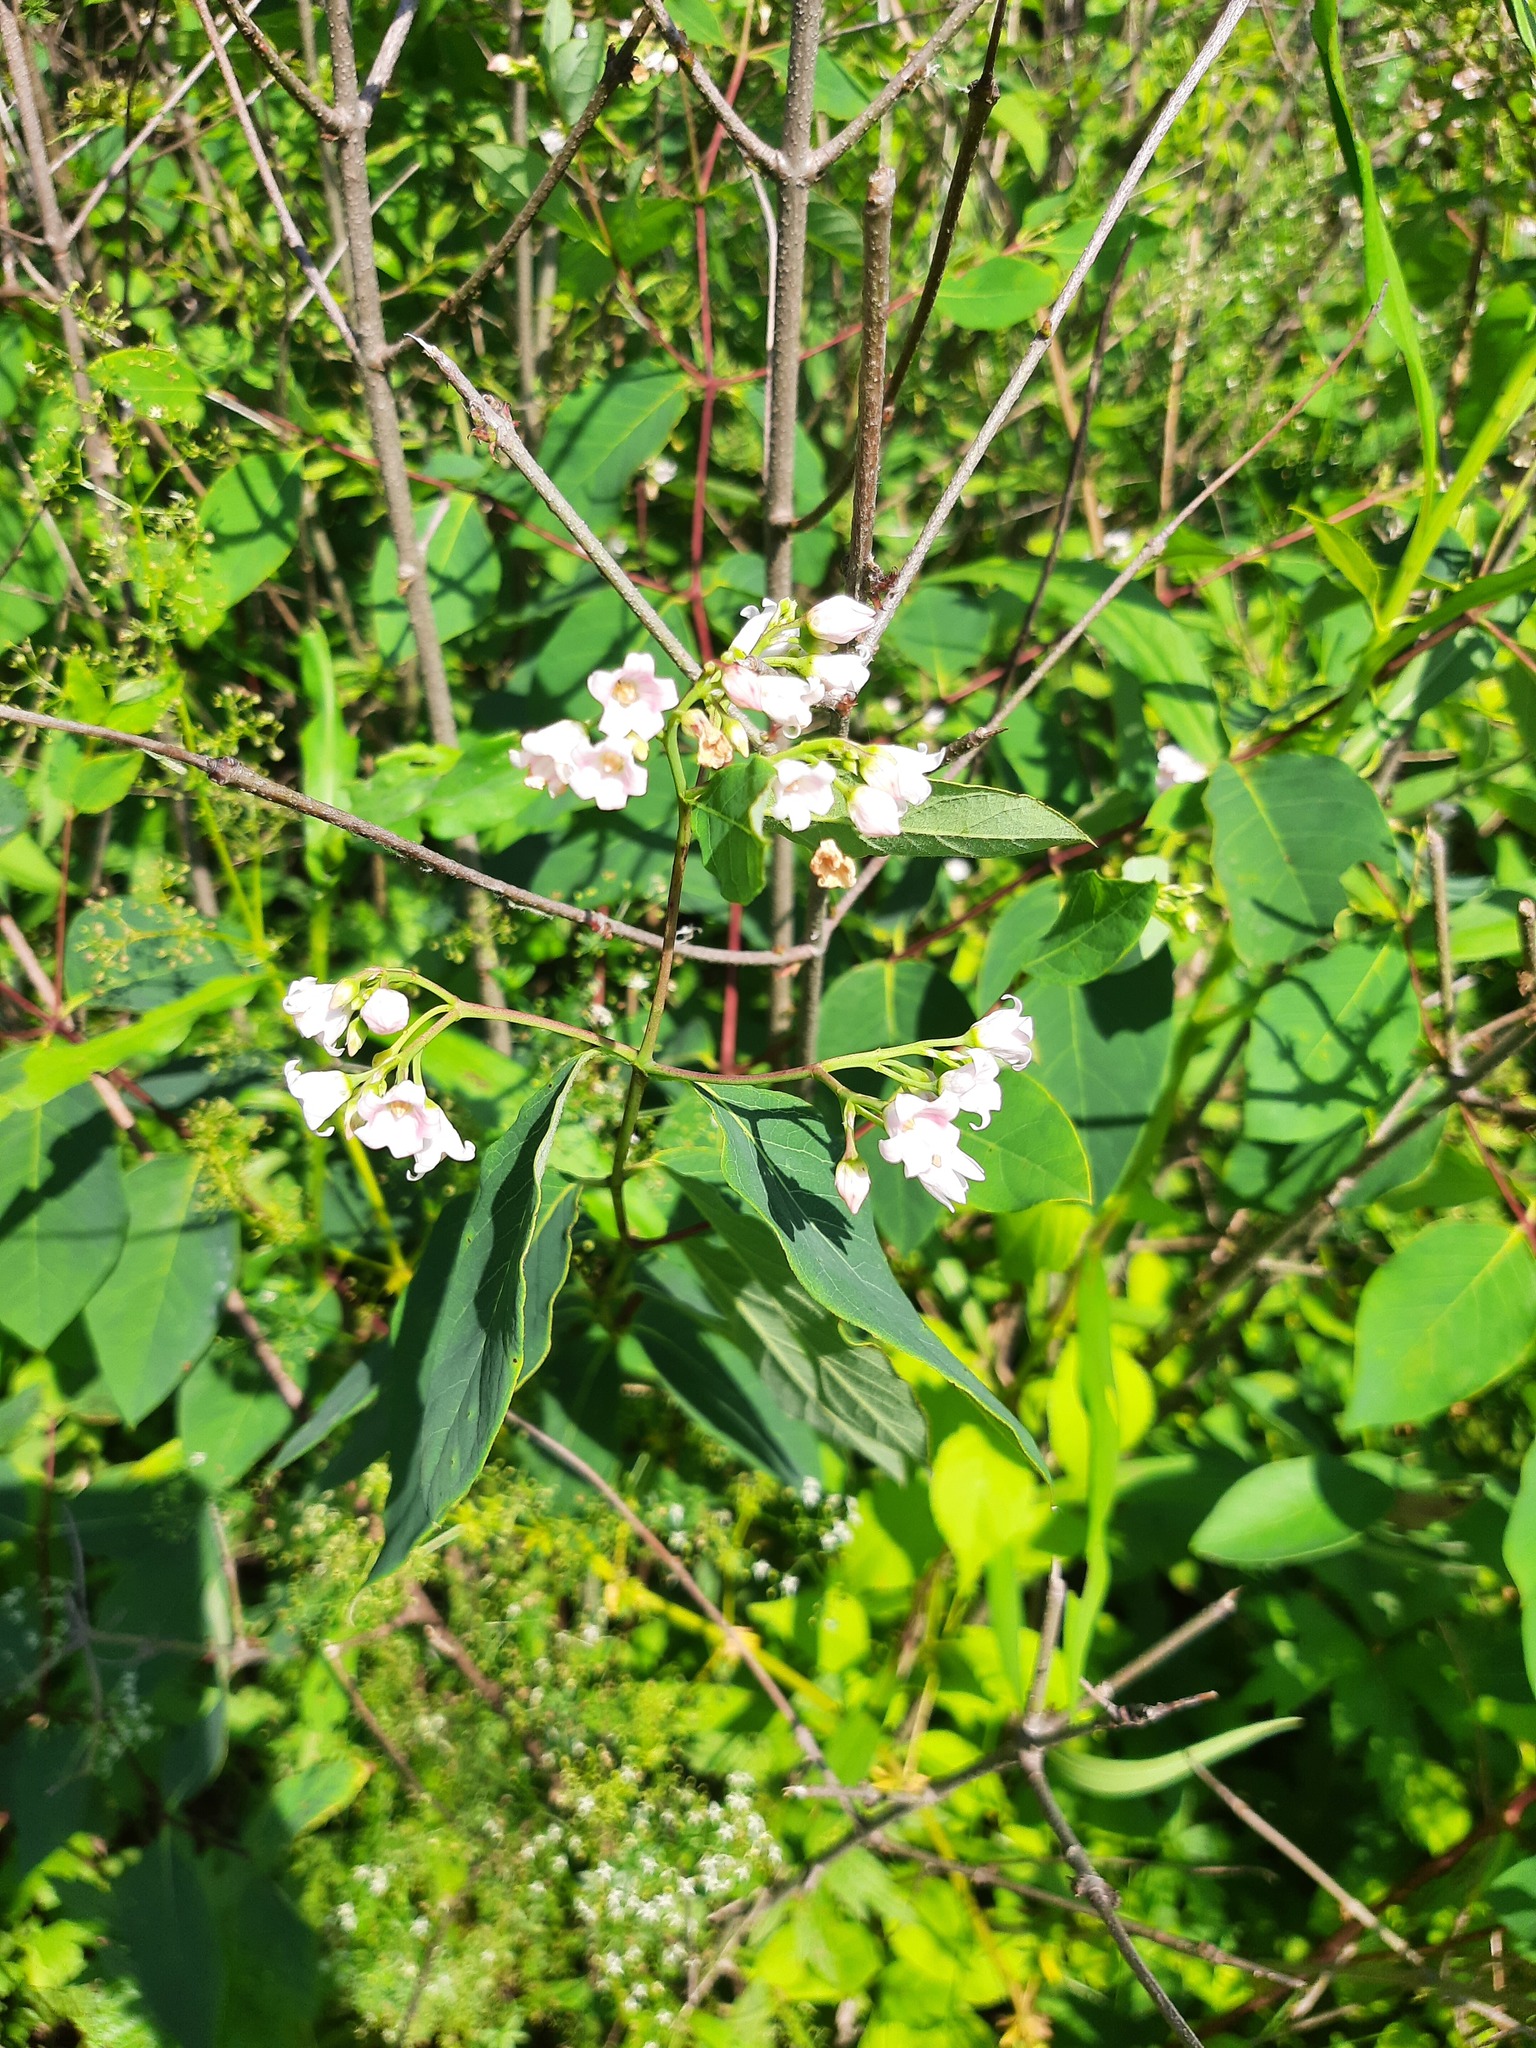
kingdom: Plantae
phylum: Tracheophyta
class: Magnoliopsida
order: Gentianales
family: Apocynaceae
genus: Apocynum
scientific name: Apocynum androsaemifolium
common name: Spreading dogbane
